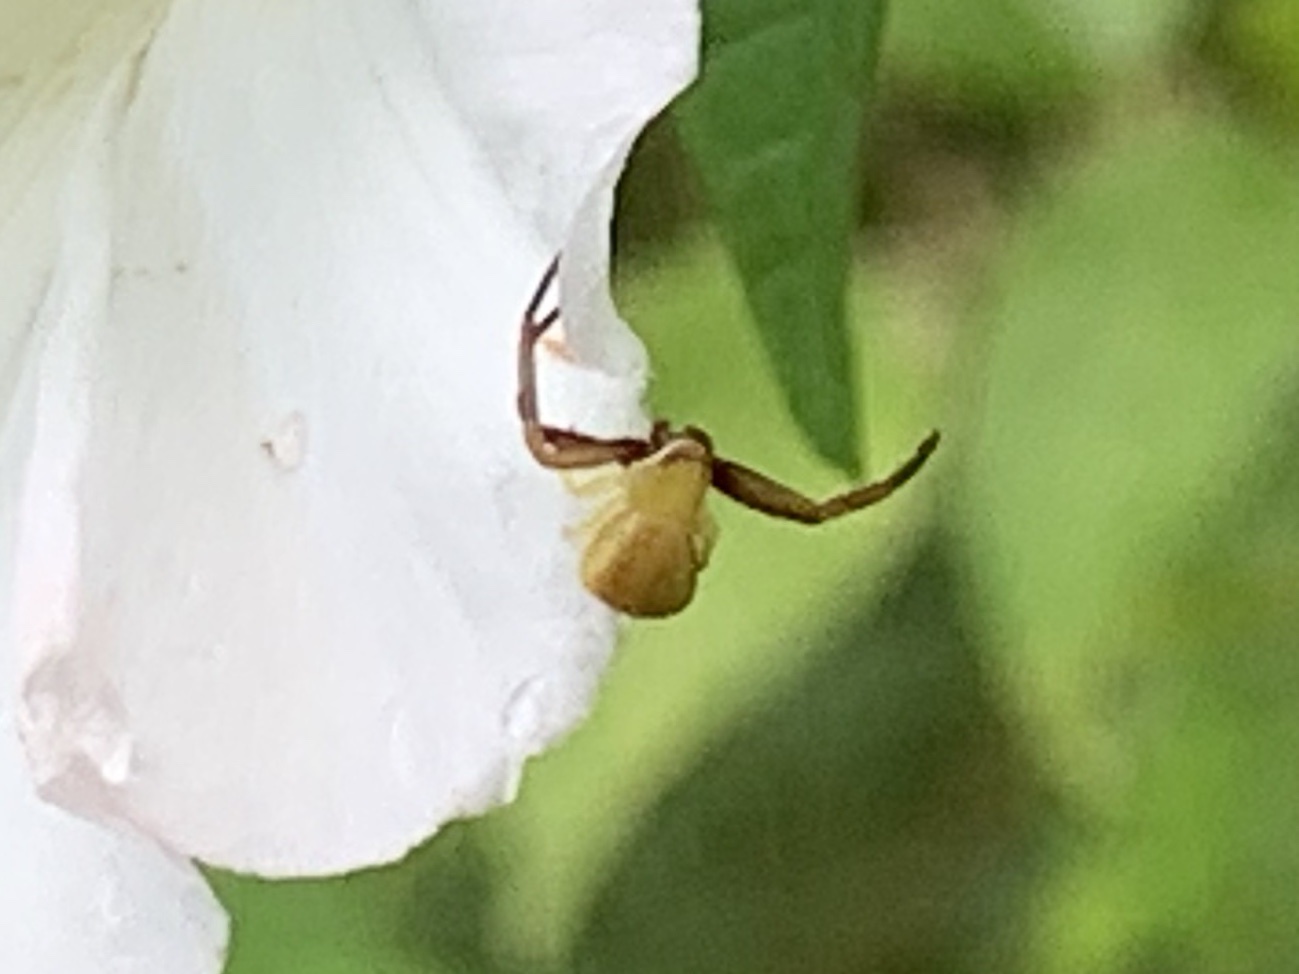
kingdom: Animalia
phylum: Arthropoda
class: Arachnida
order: Araneae
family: Thomisidae
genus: Misumenoides
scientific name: Misumenoides formosipes
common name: White-banded crab spider
